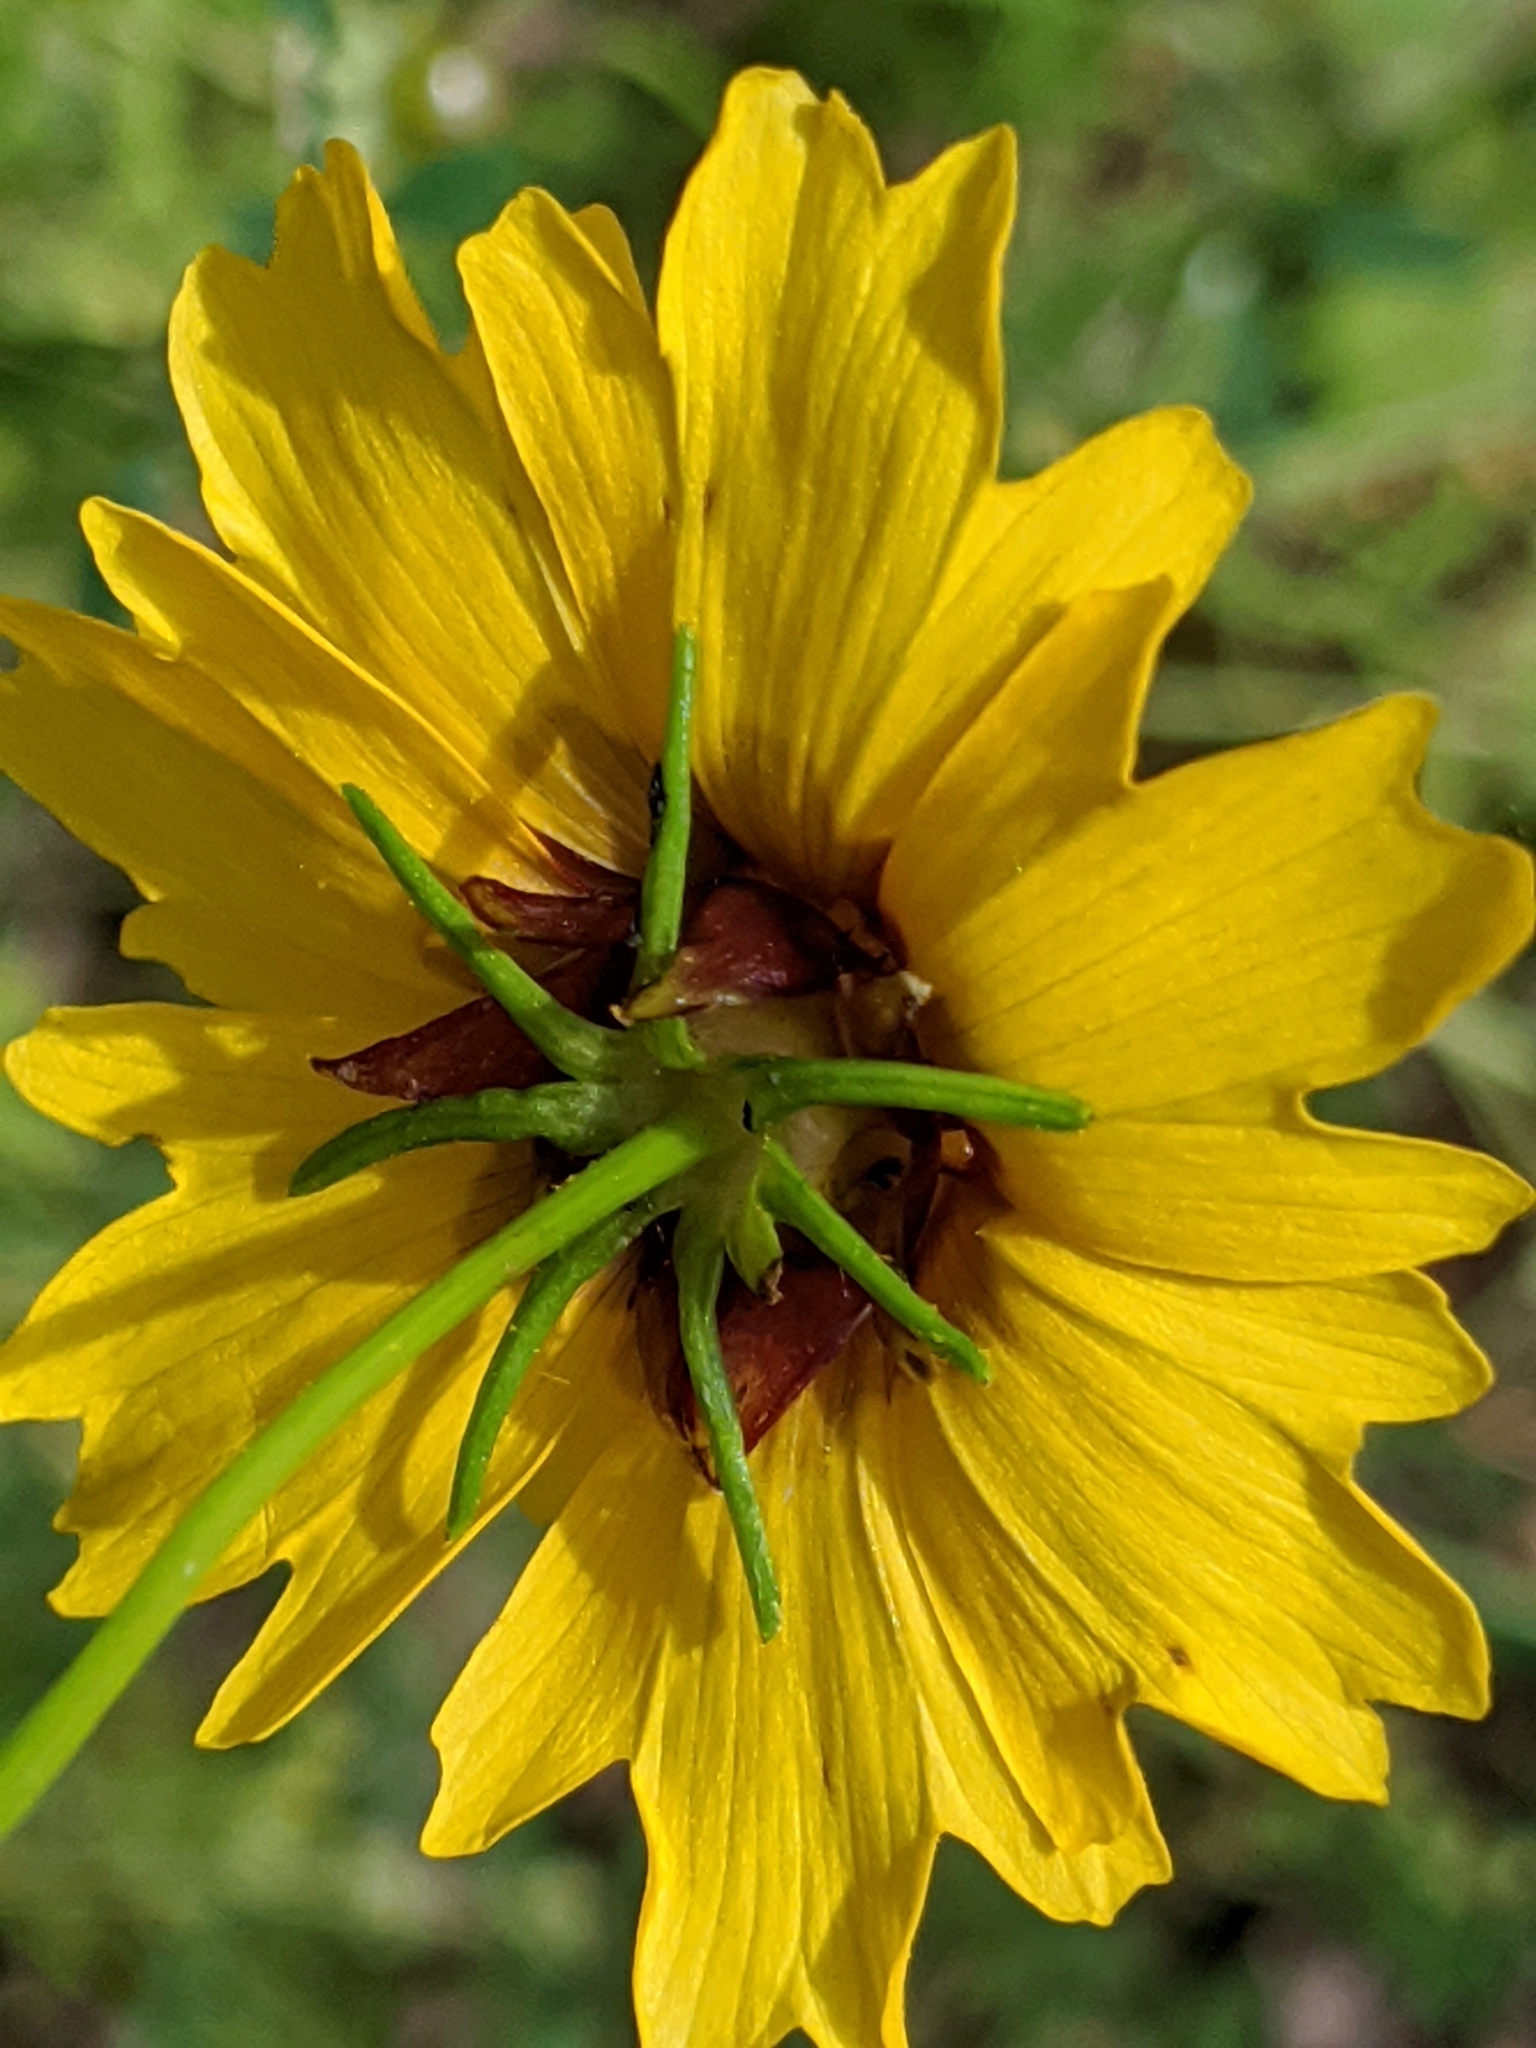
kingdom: Plantae
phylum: Tracheophyta
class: Magnoliopsida
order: Asterales
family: Asteraceae
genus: Coreopsis
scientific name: Coreopsis basalis
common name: Golden-mane coreopsis
